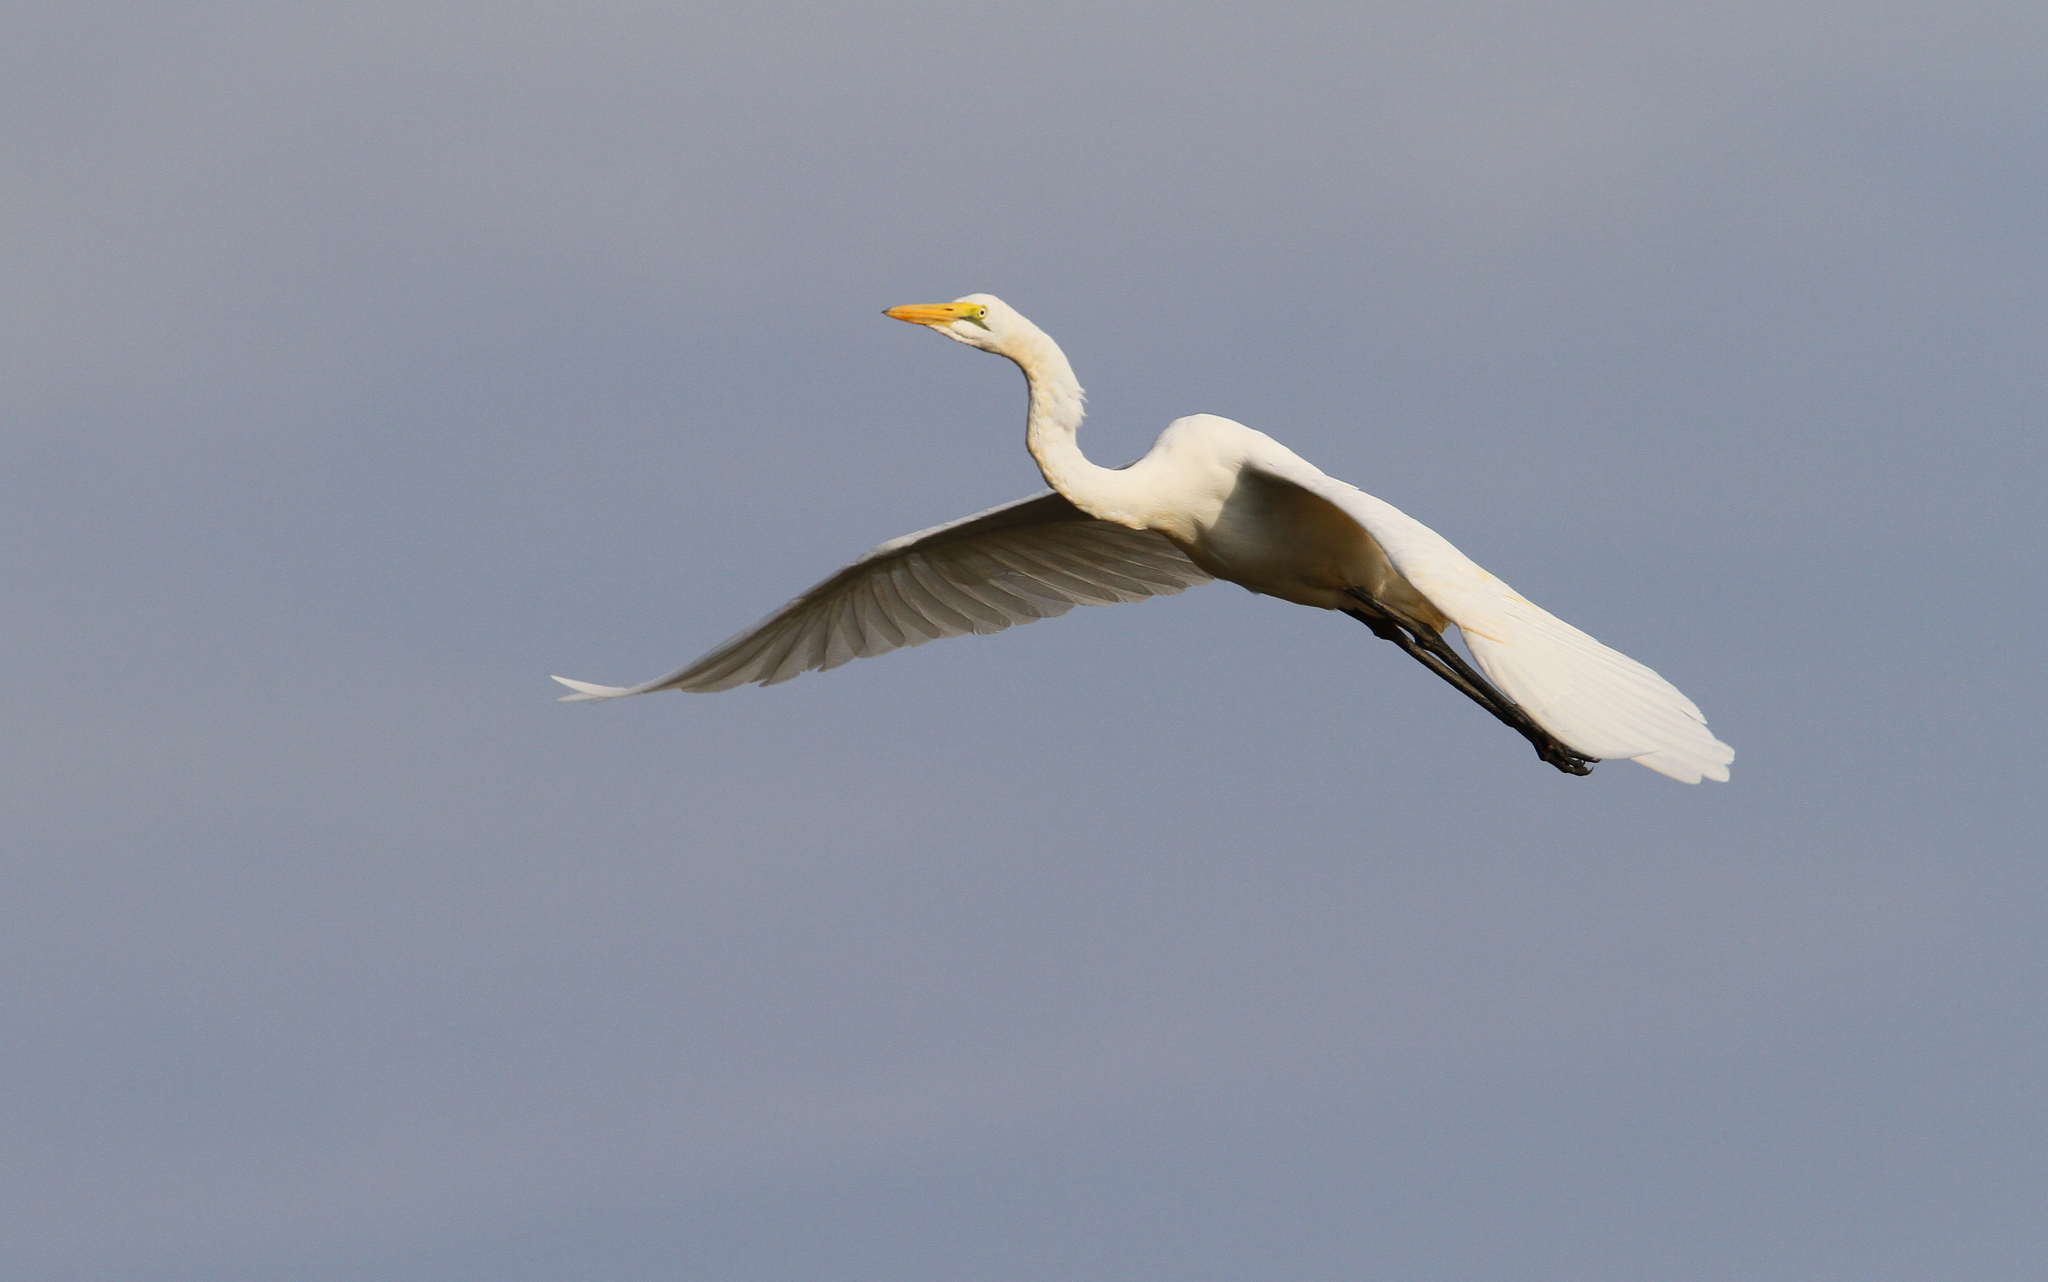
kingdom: Animalia
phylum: Chordata
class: Aves
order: Pelecaniformes
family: Ardeidae
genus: Ardea
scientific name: Ardea alba
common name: Great egret
